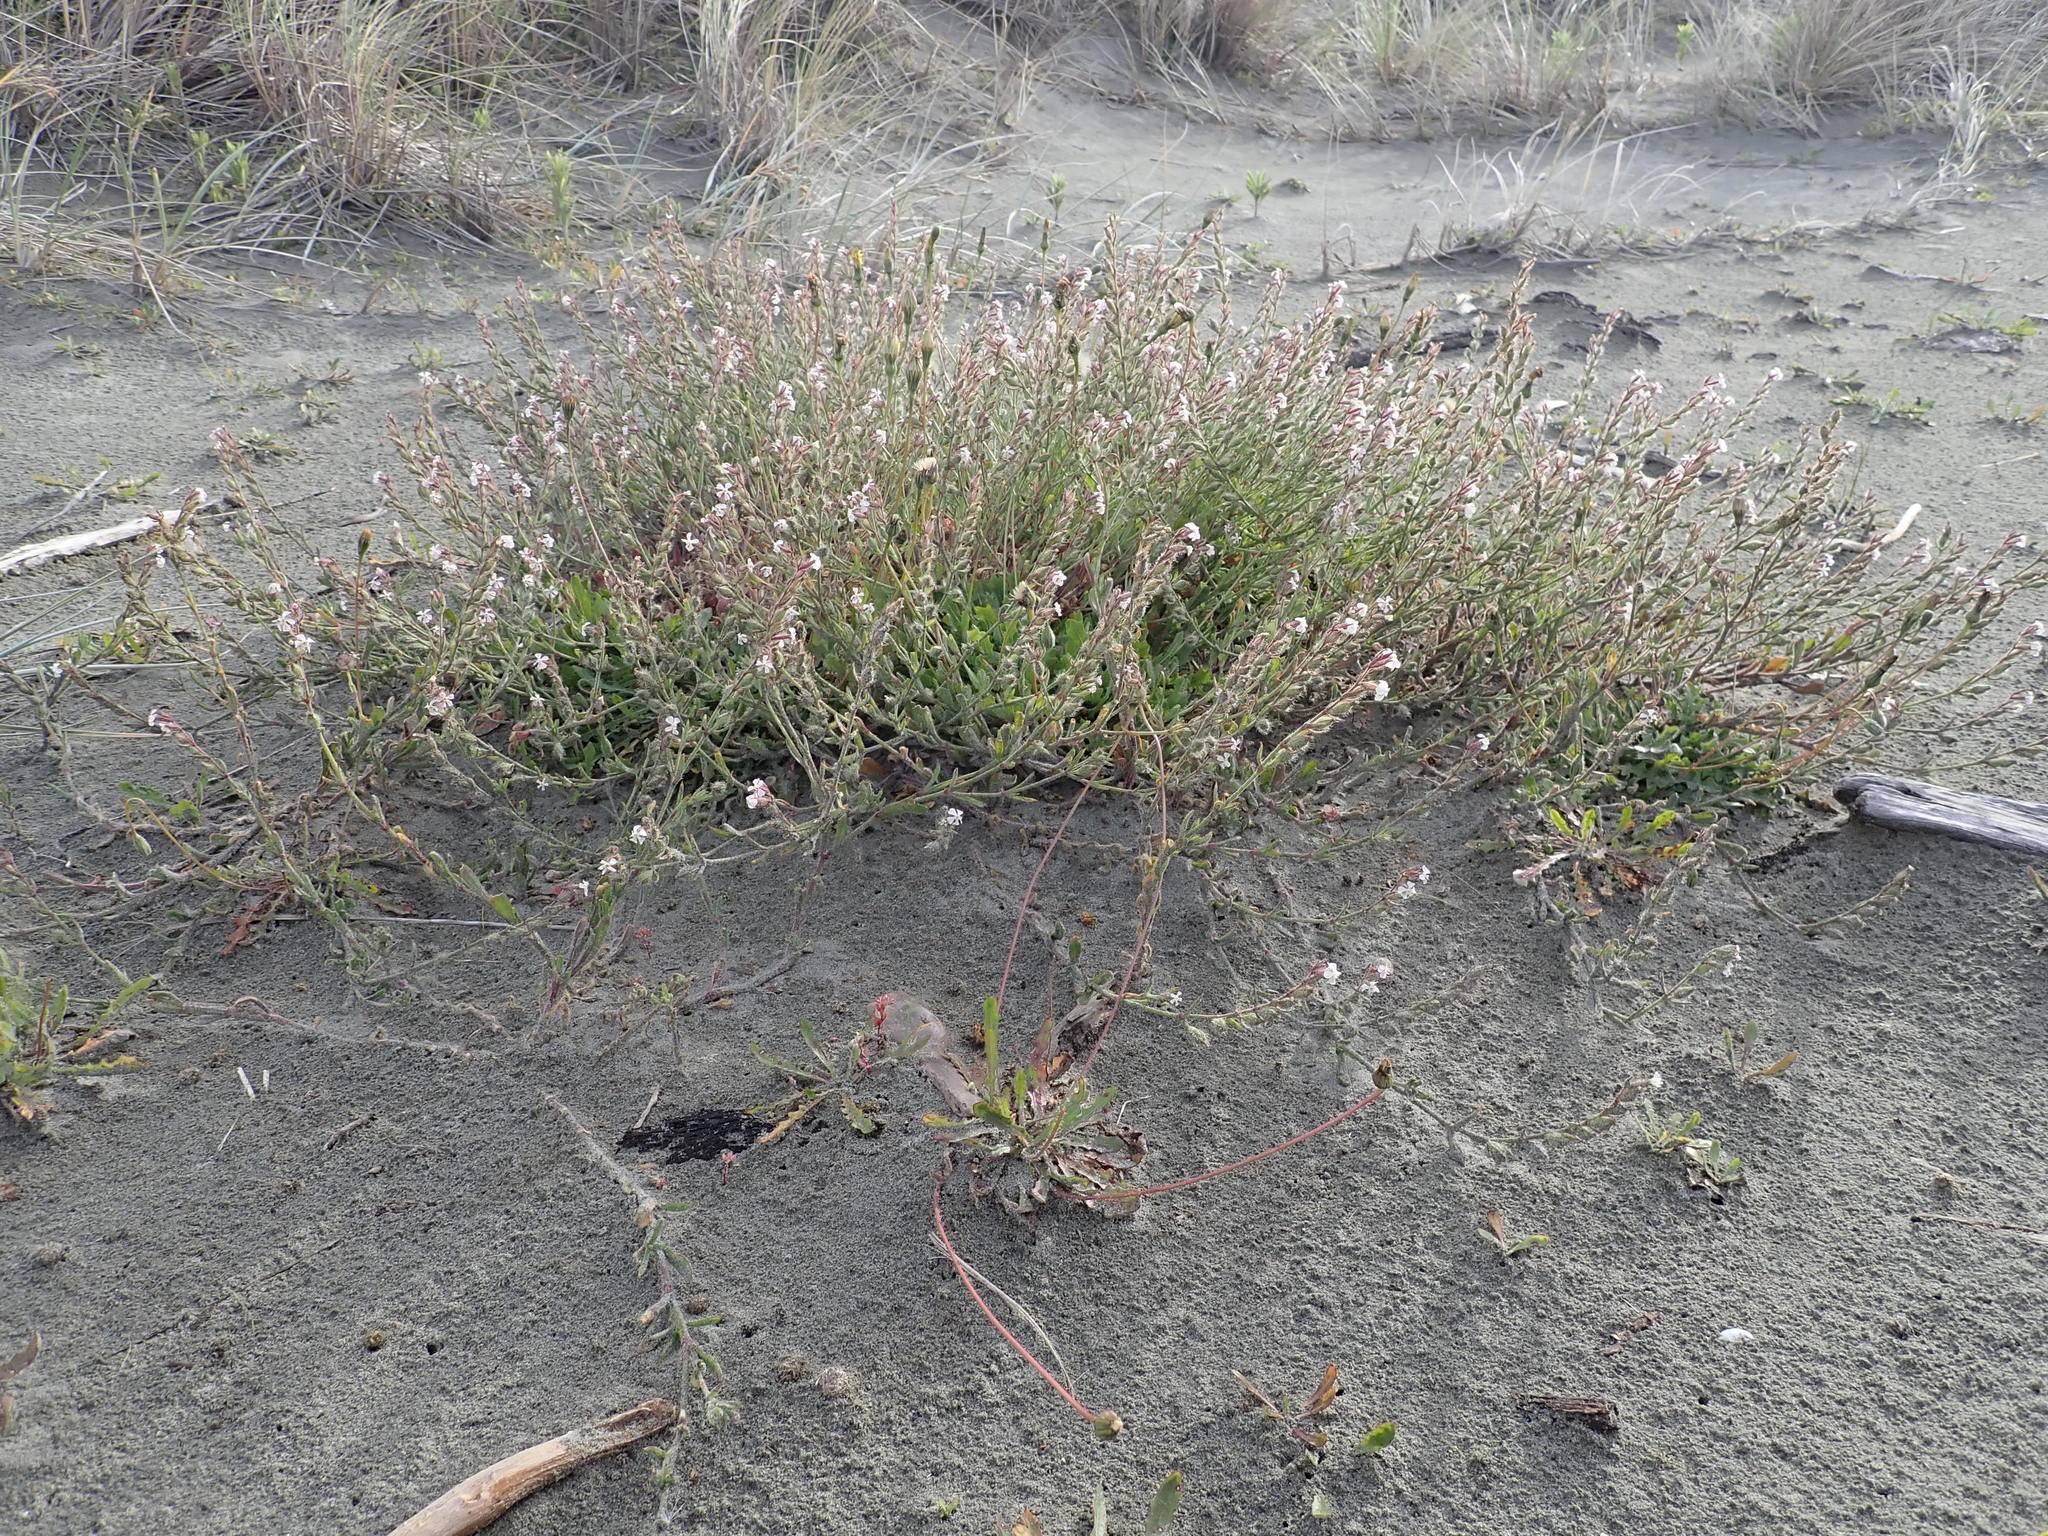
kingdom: Plantae
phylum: Tracheophyta
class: Magnoliopsida
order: Caryophyllales
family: Caryophyllaceae
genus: Silene
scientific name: Silene gallica
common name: Small-flowered catchfly
